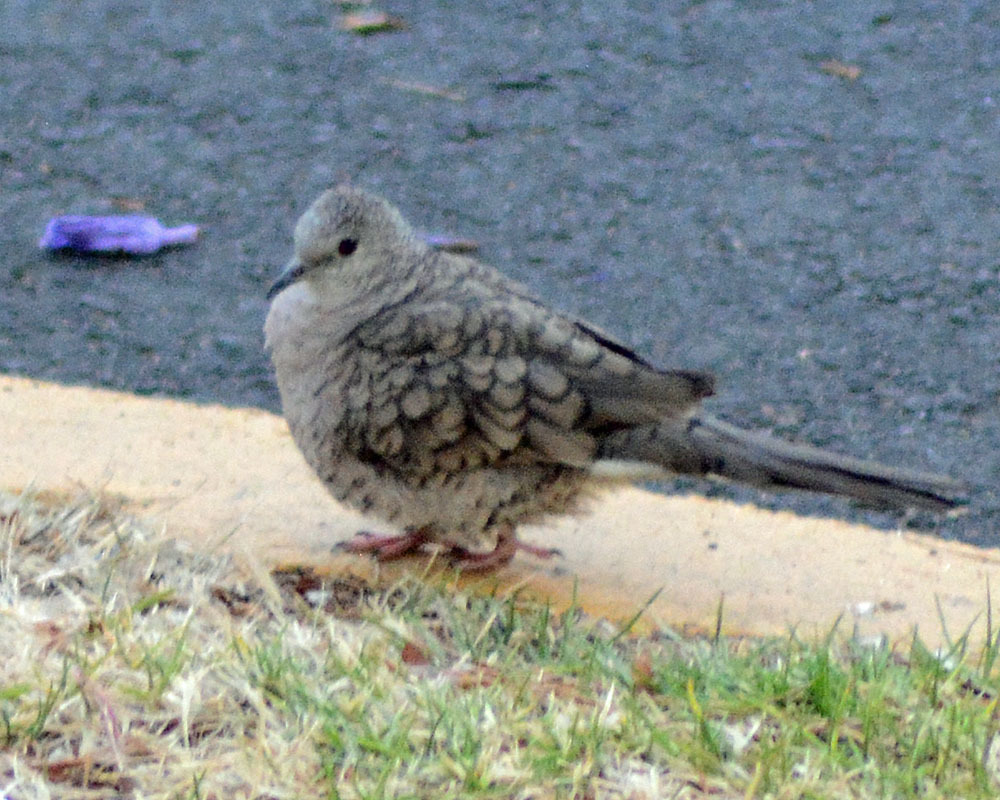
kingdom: Animalia
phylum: Chordata
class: Aves
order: Columbiformes
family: Columbidae
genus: Columbina
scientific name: Columbina inca
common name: Inca dove
